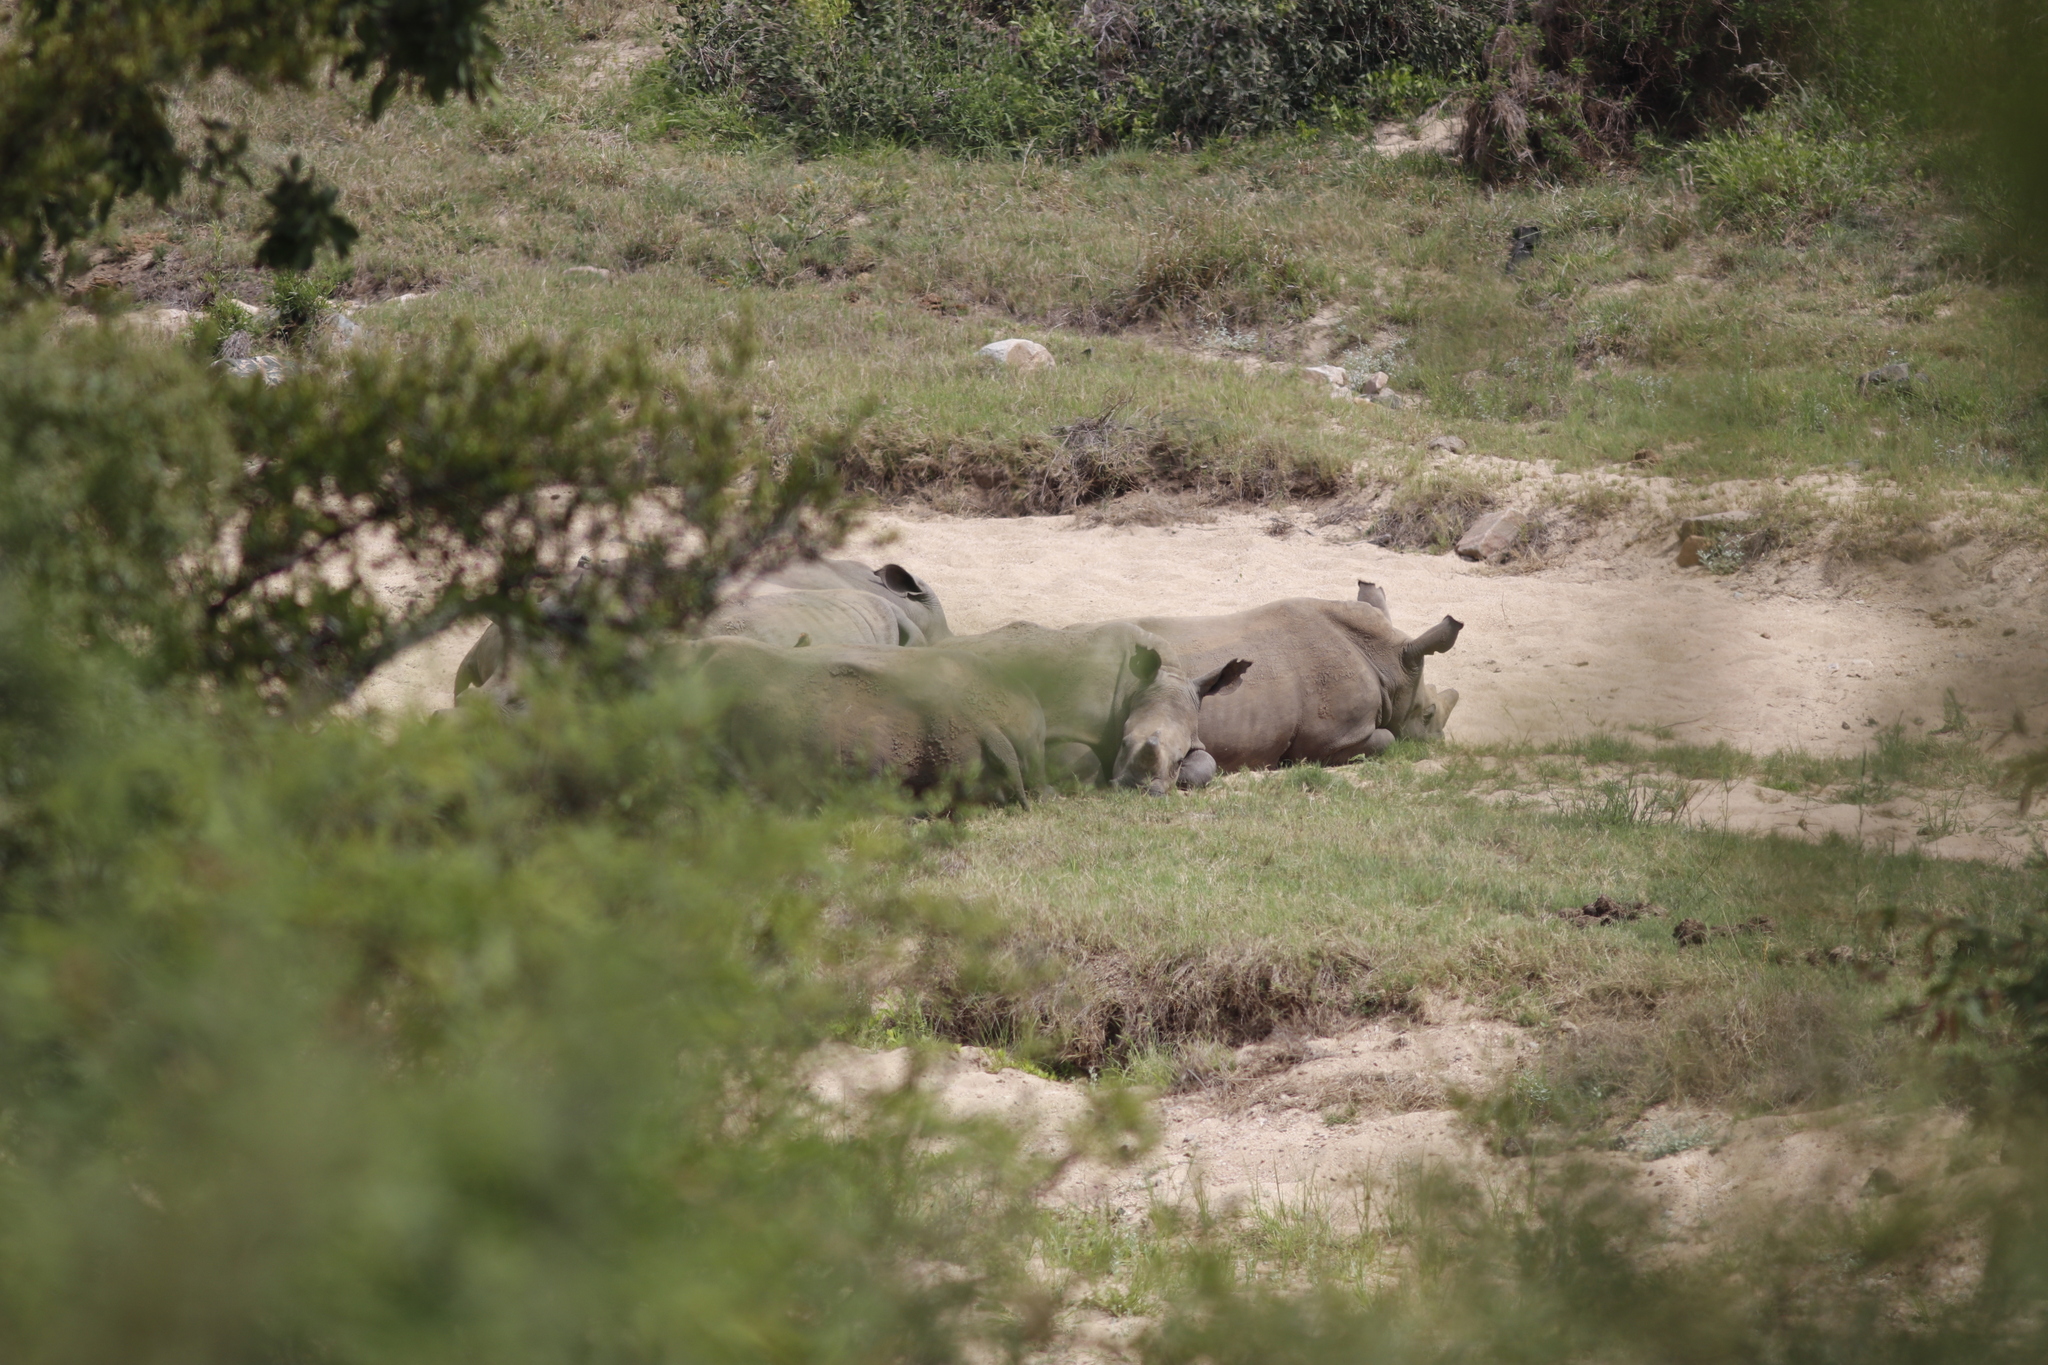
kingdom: Animalia
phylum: Chordata
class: Mammalia
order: Perissodactyla
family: Rhinocerotidae
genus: Ceratotherium
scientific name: Ceratotherium simum
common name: White rhinoceros
